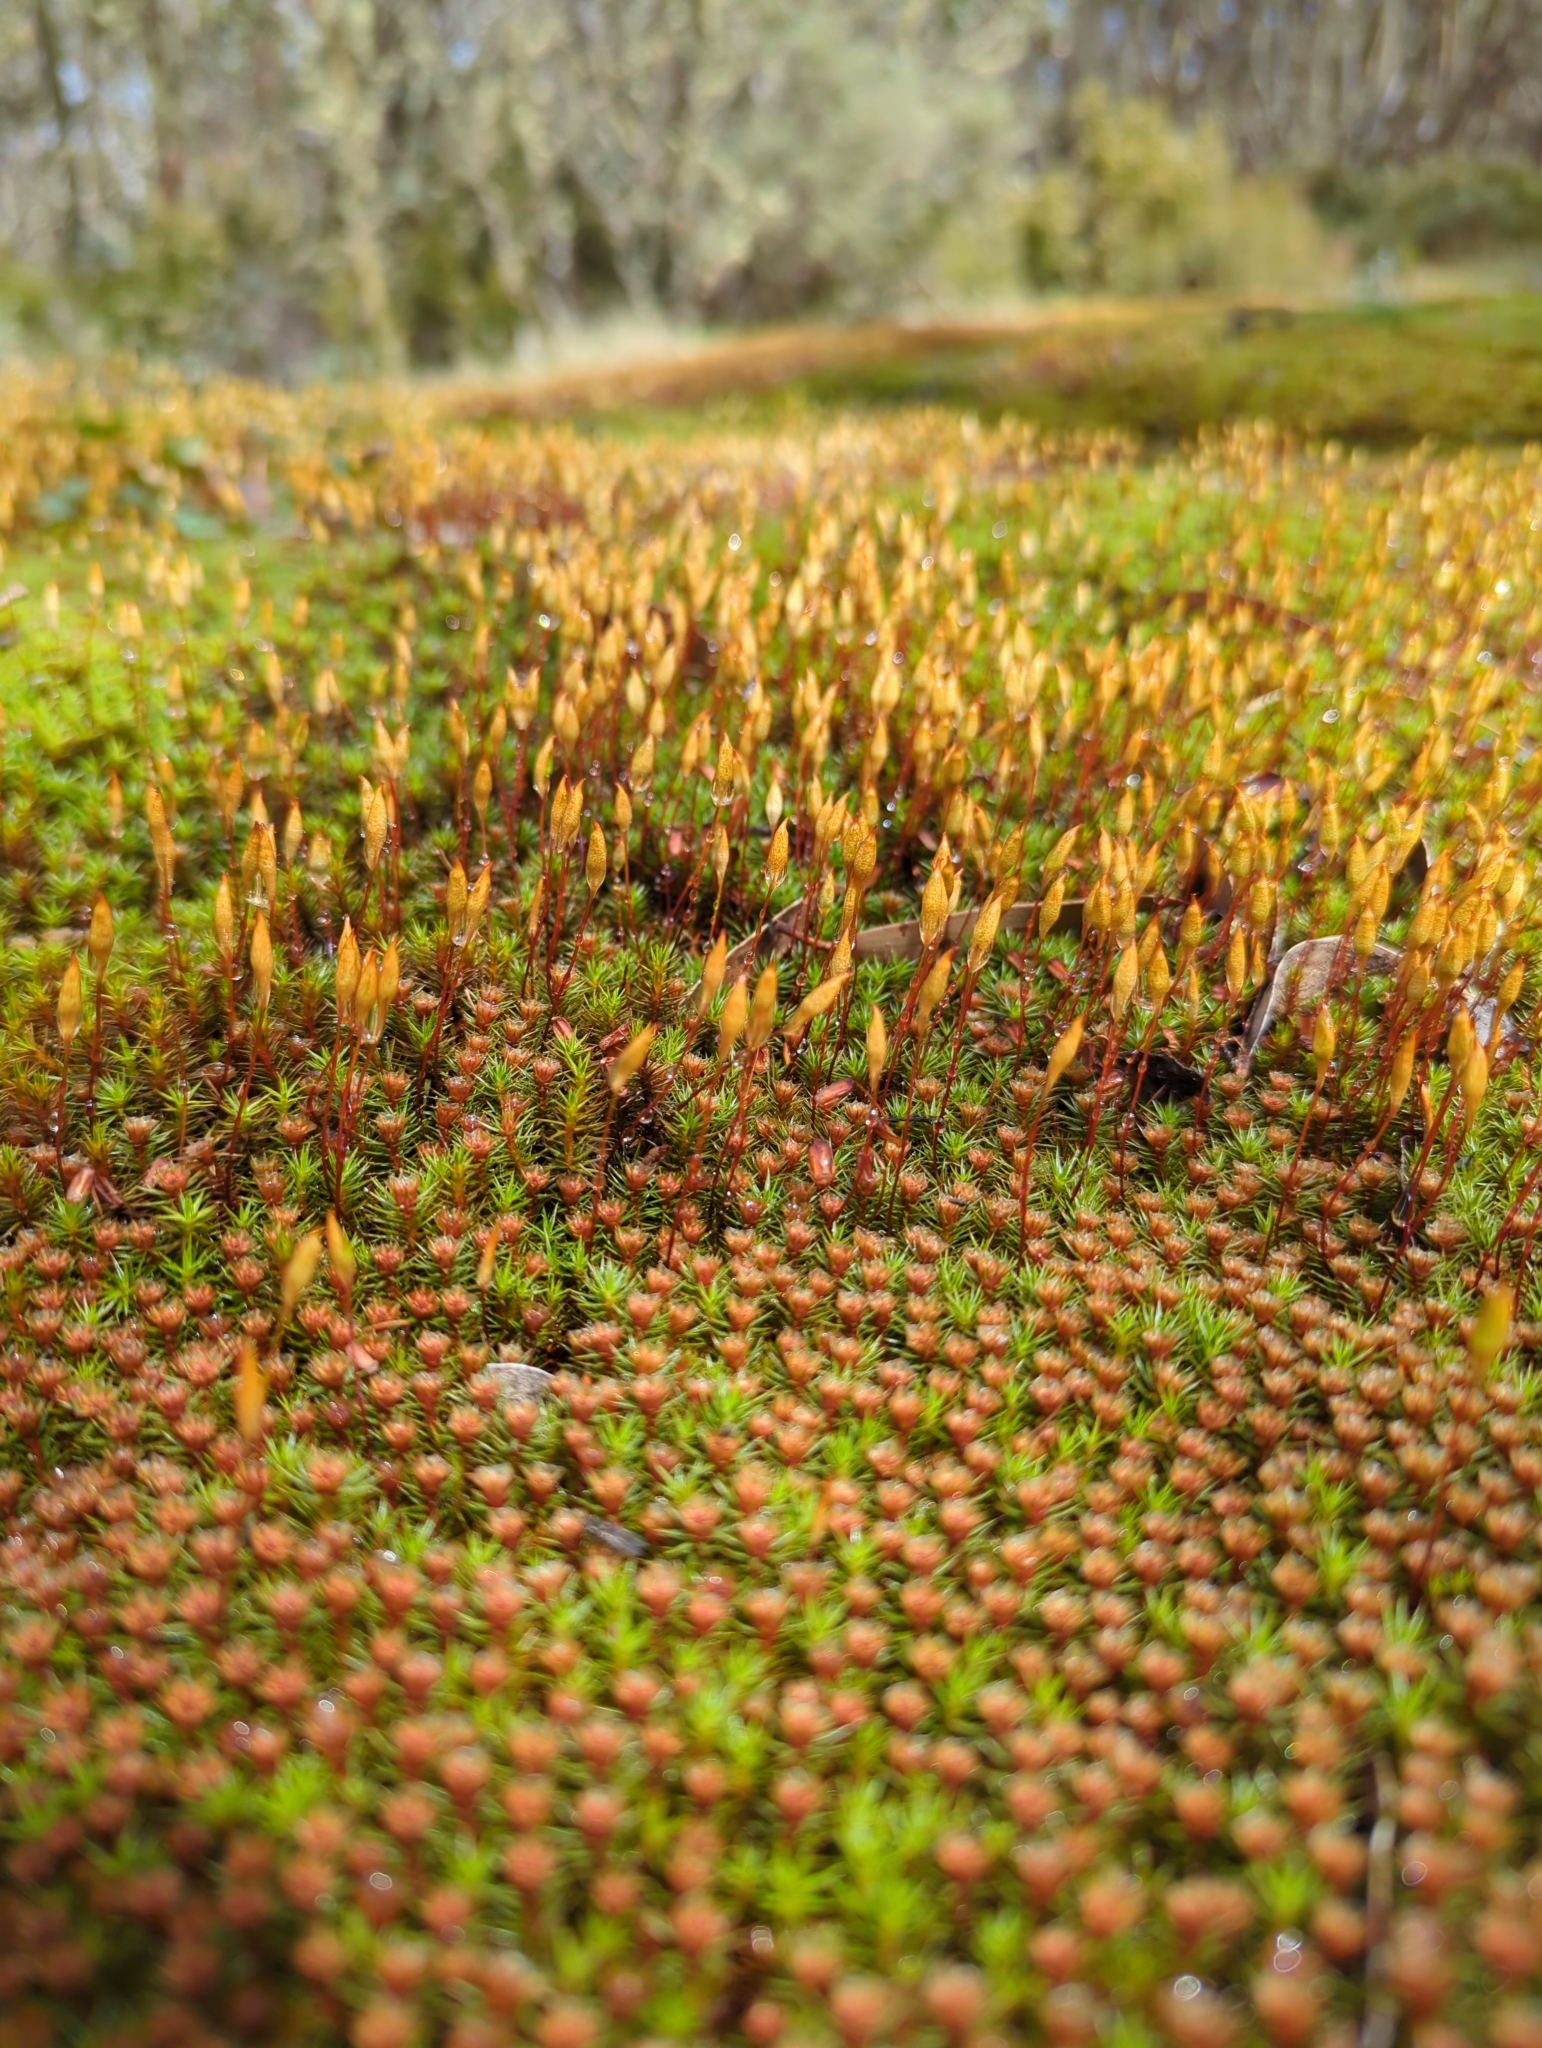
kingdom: Plantae
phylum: Bryophyta
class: Polytrichopsida
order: Polytrichales
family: Polytrichaceae
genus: Polytrichum
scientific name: Polytrichum juniperinum
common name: Juniper haircap moss
